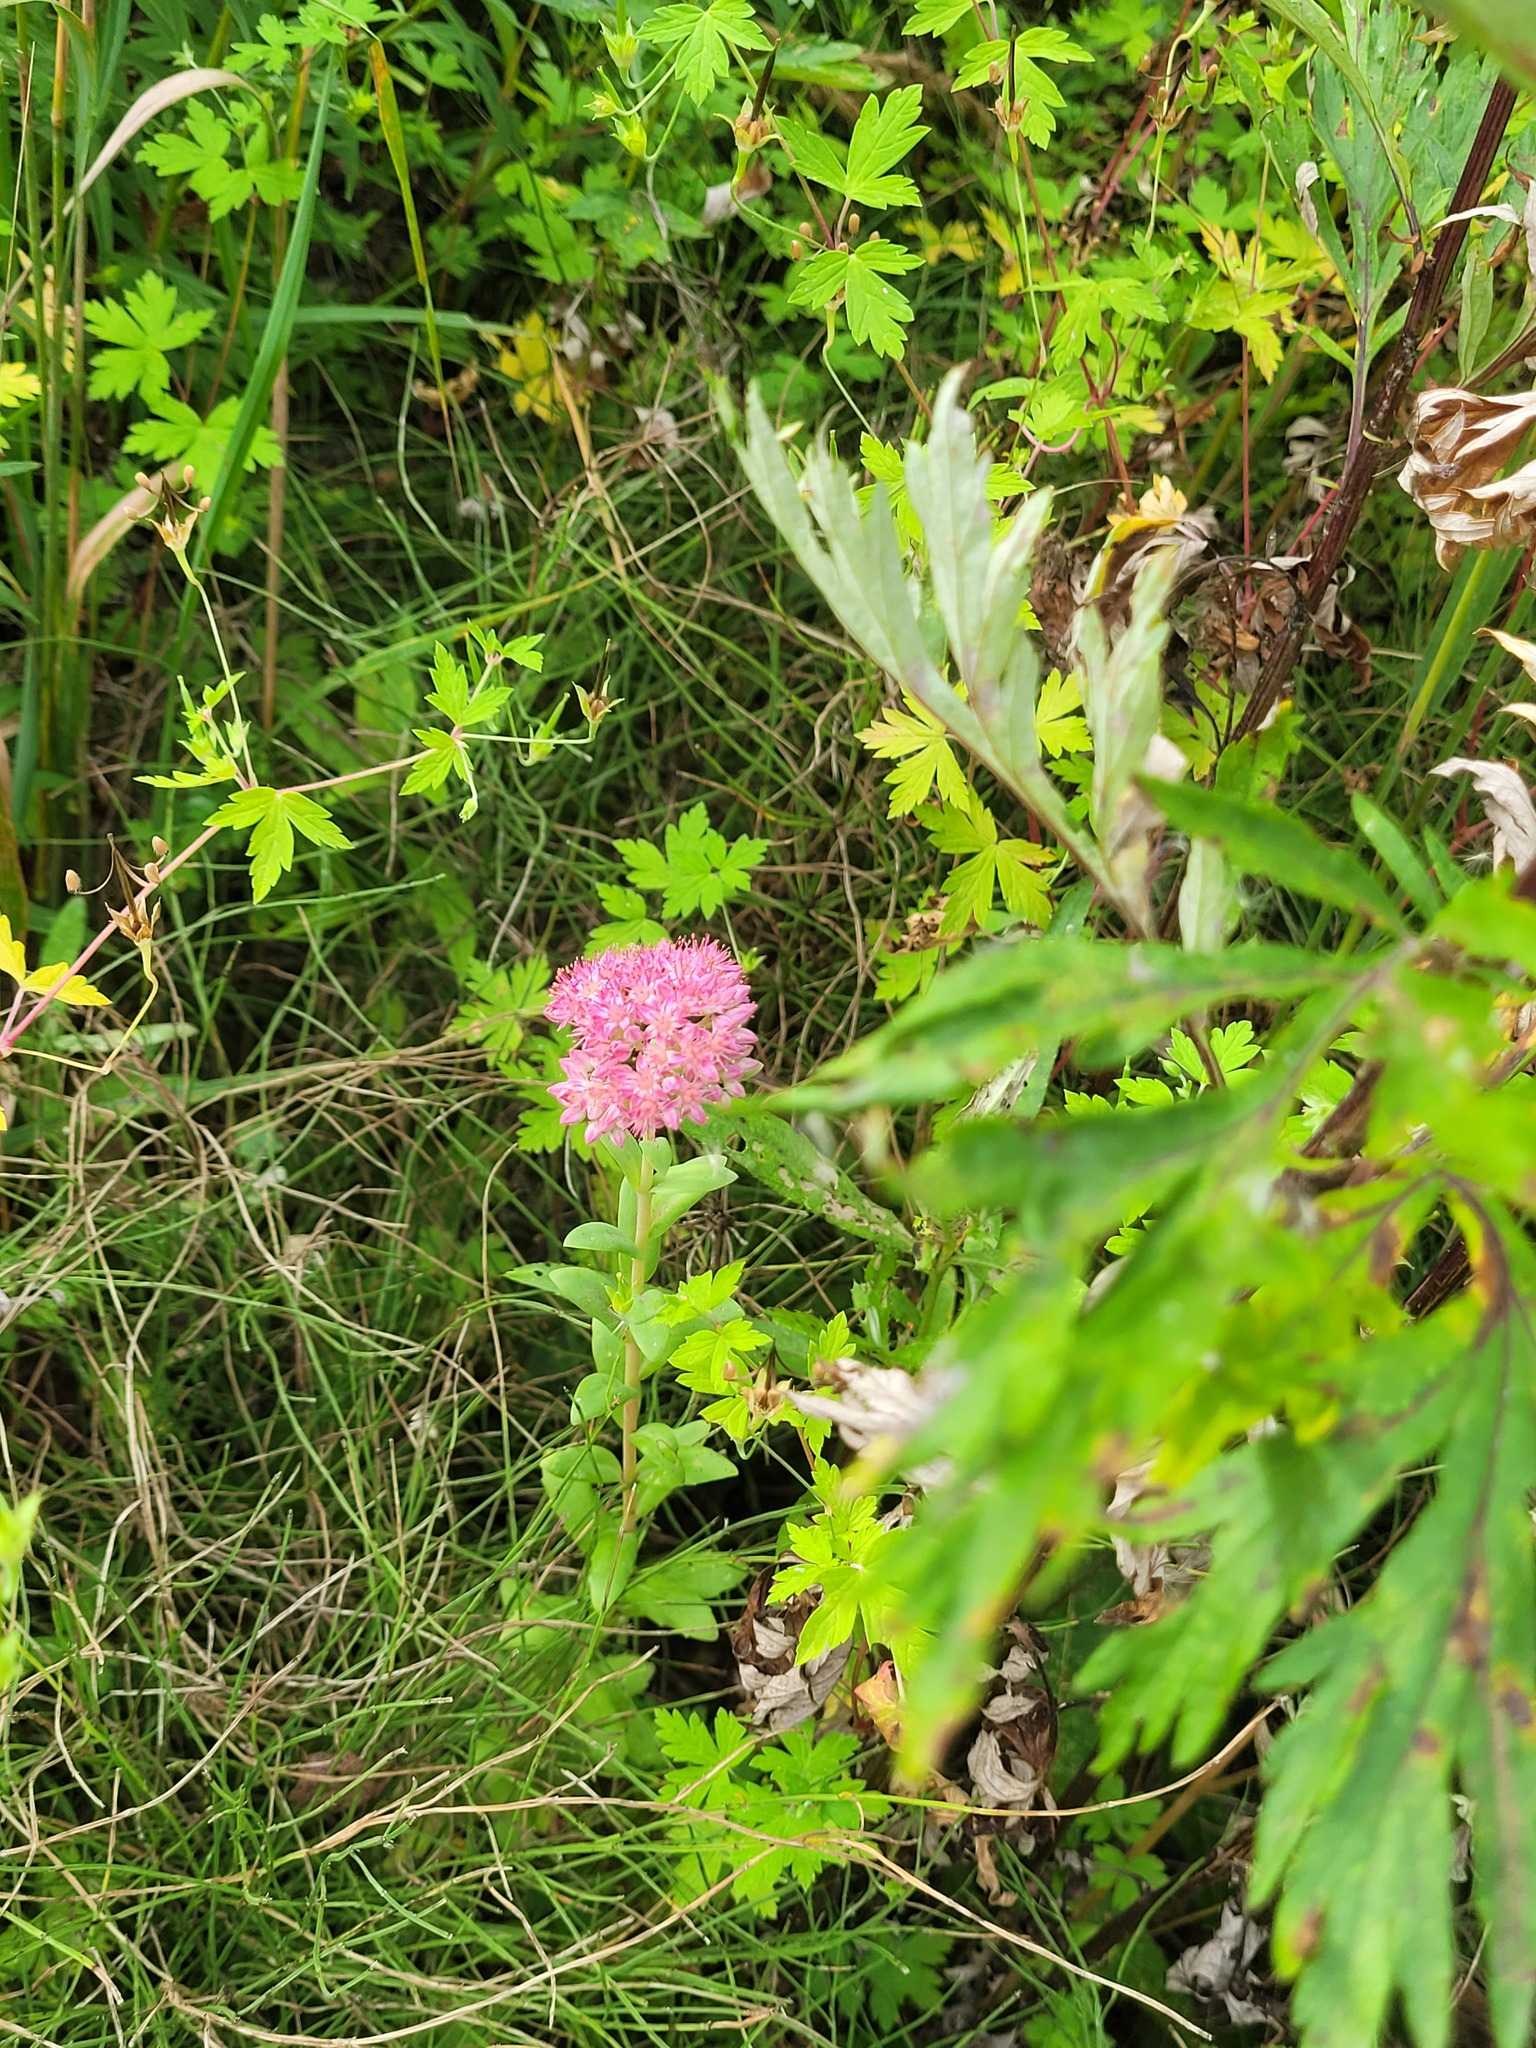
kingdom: Plantae
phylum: Tracheophyta
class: Magnoliopsida
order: Saxifragales
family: Crassulaceae
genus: Hylotelephium
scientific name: Hylotelephium telephium
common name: Live-forever
